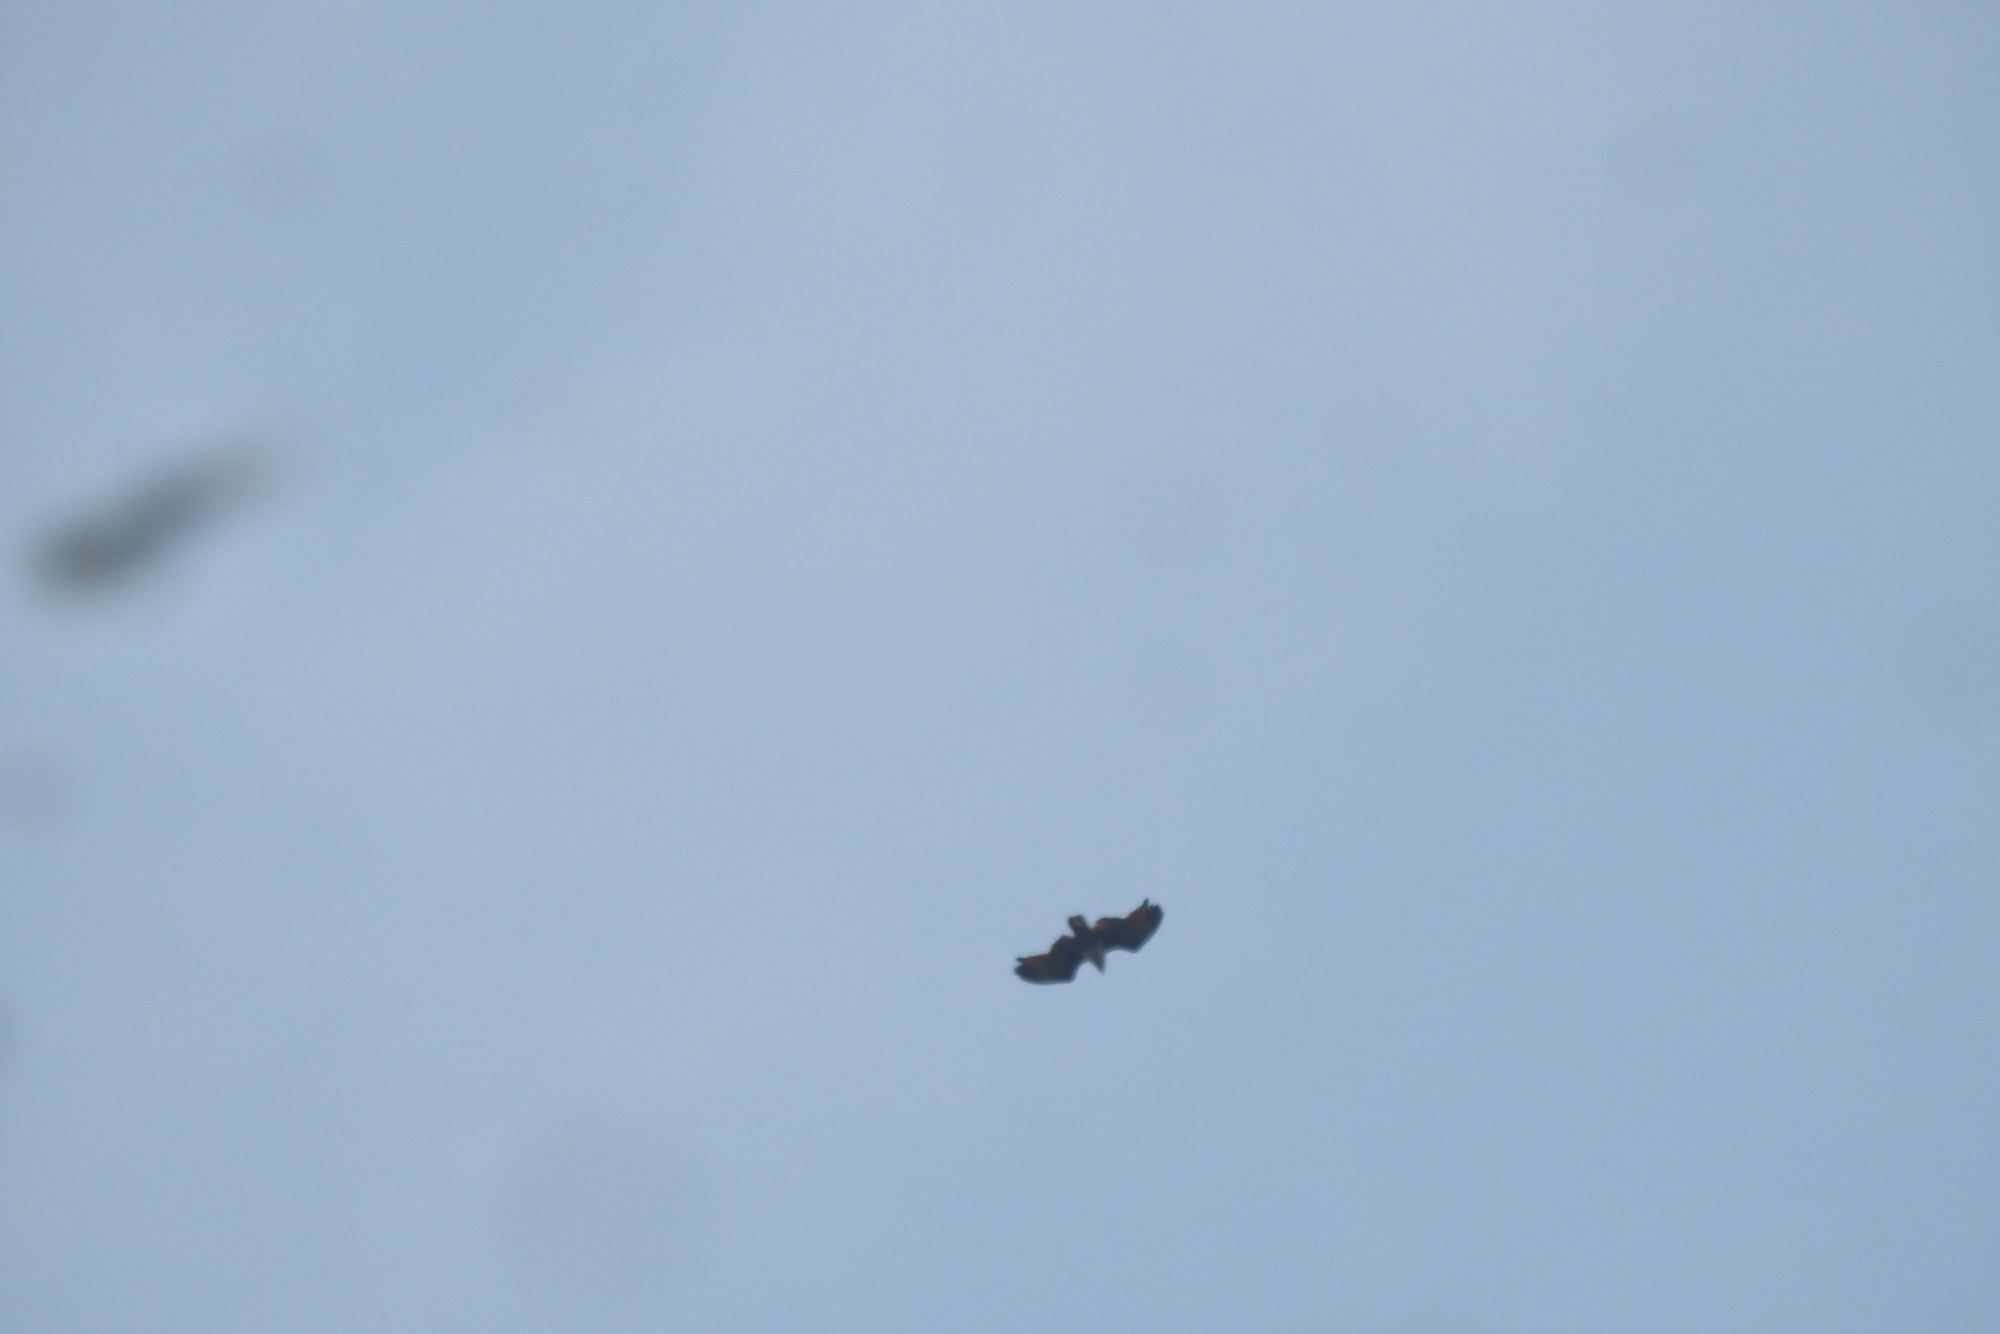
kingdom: Animalia
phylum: Chordata
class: Aves
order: Accipitriformes
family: Accipitridae
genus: Haliastur
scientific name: Haliastur indus
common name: Brahminy kite
